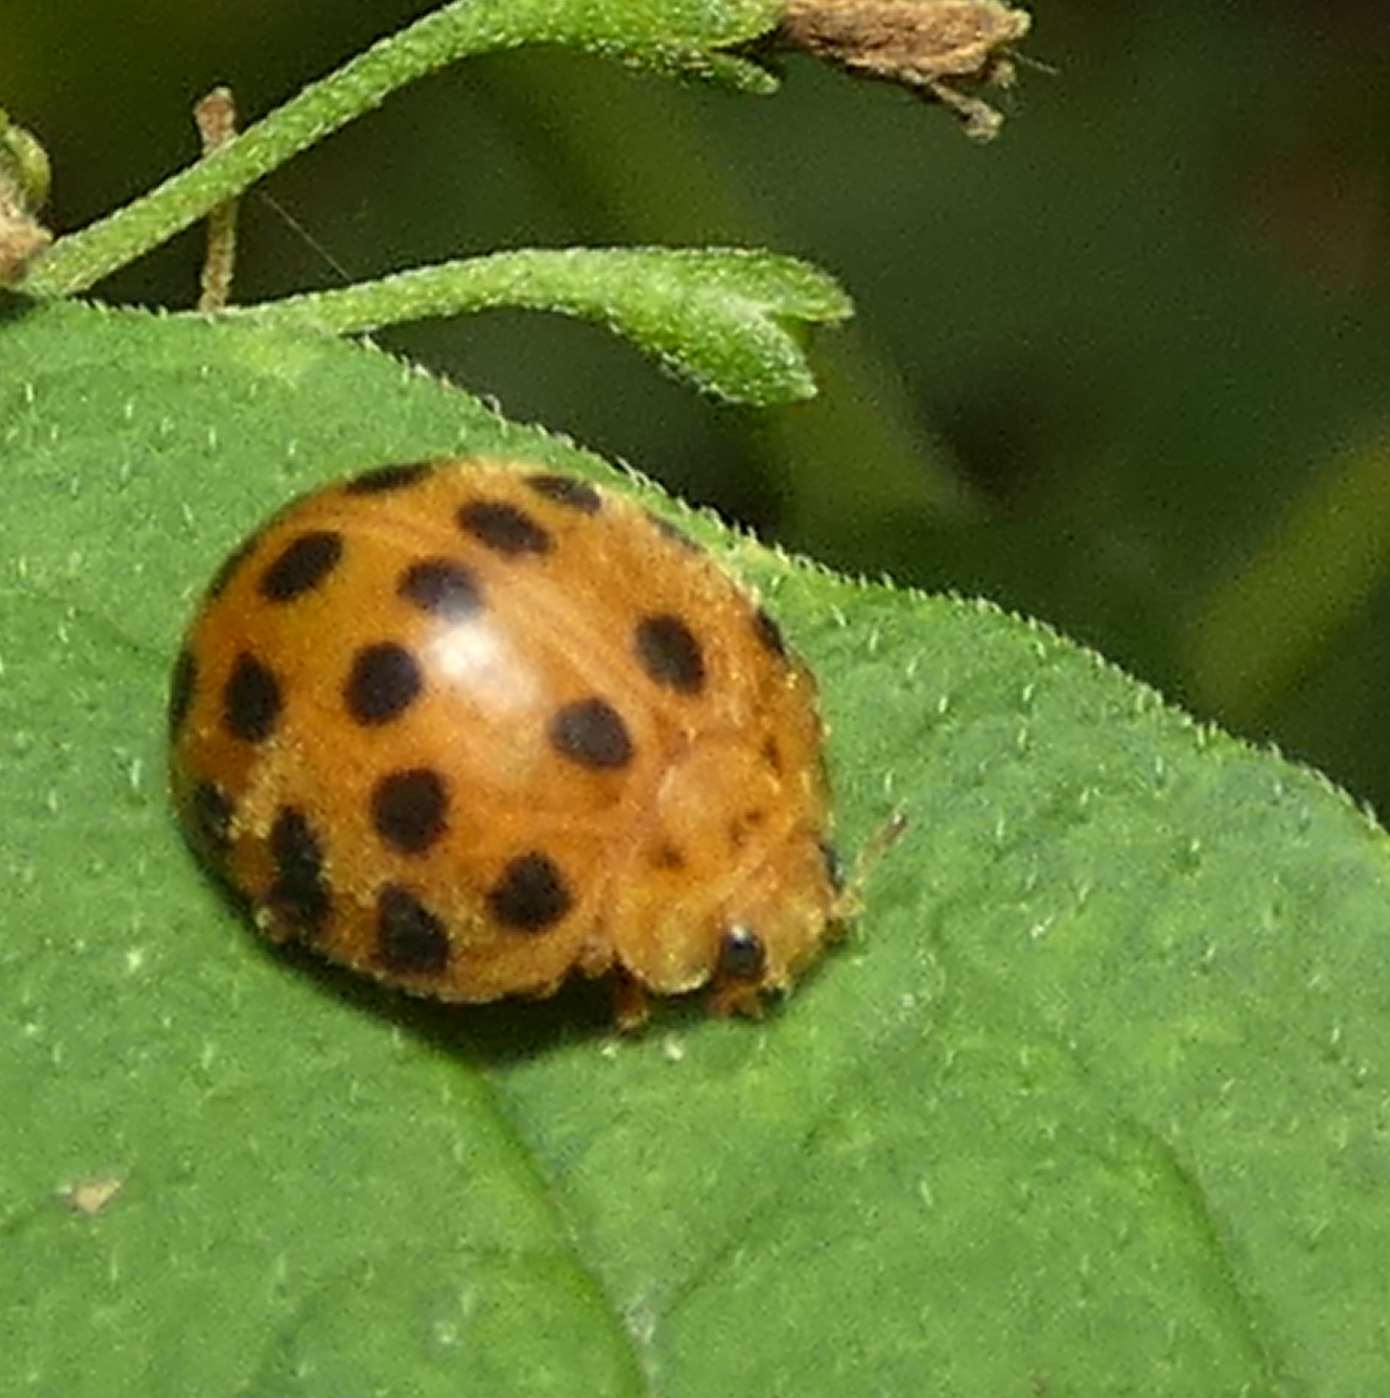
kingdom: Animalia
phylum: Arthropoda
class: Insecta
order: Coleoptera
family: Coccinellidae
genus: Henosepilachna
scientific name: Henosepilachna vigintioctopunctata
